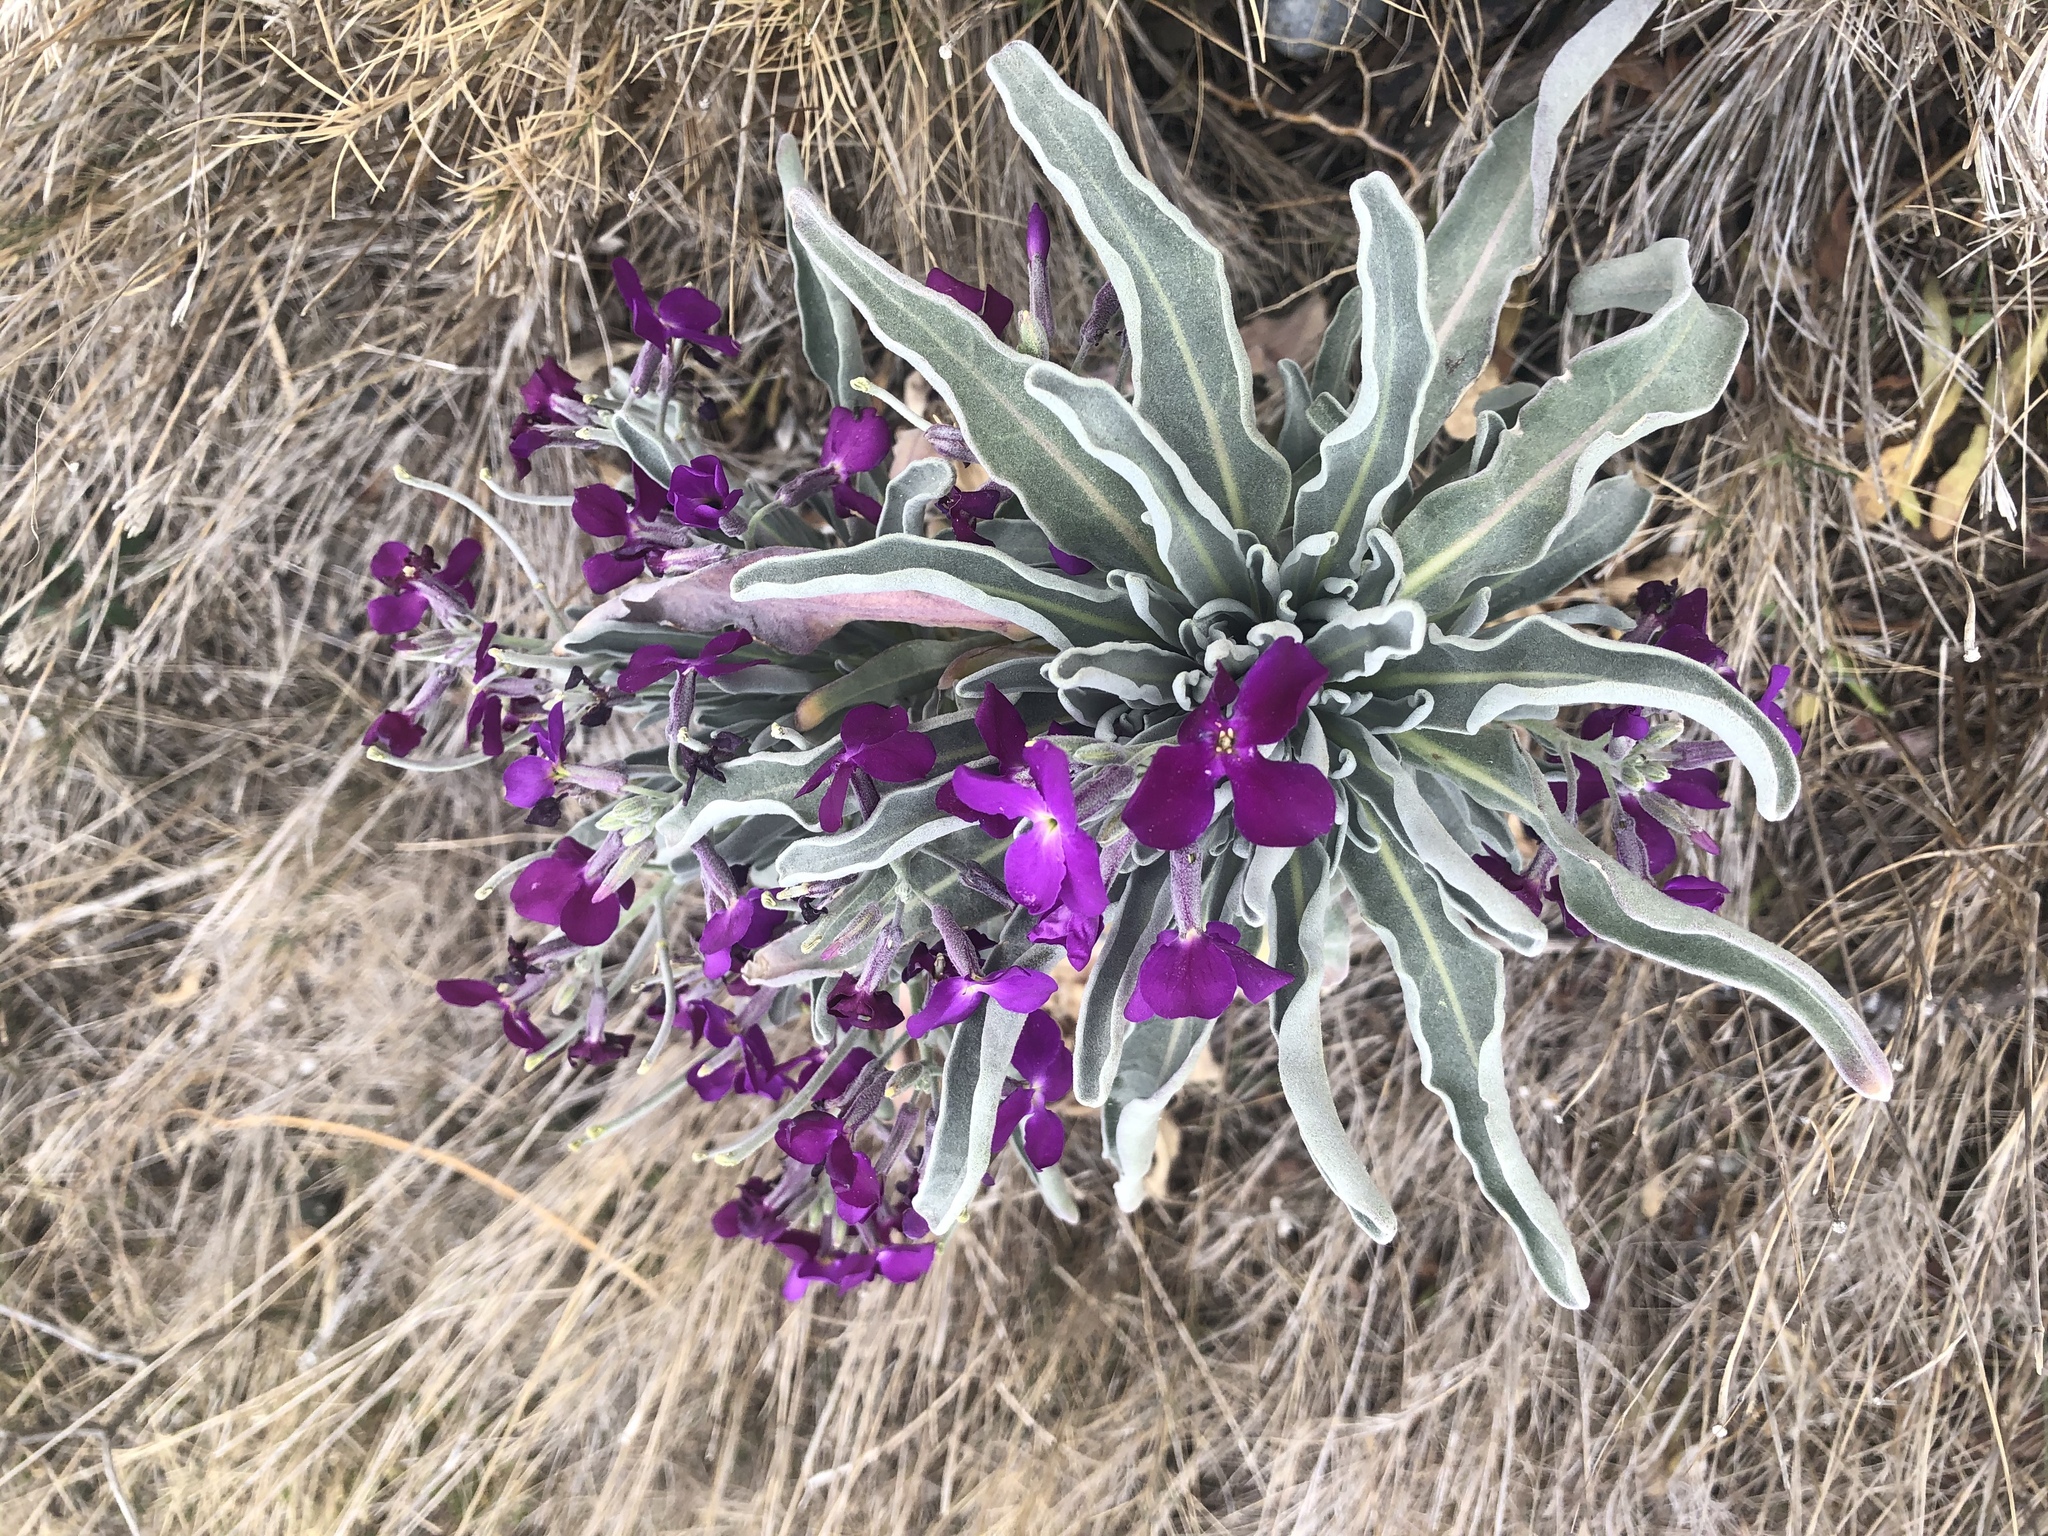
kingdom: Plantae
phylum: Tracheophyta
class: Magnoliopsida
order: Brassicales
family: Brassicaceae
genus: Matthiola
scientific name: Matthiola incana
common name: Hoary stock
